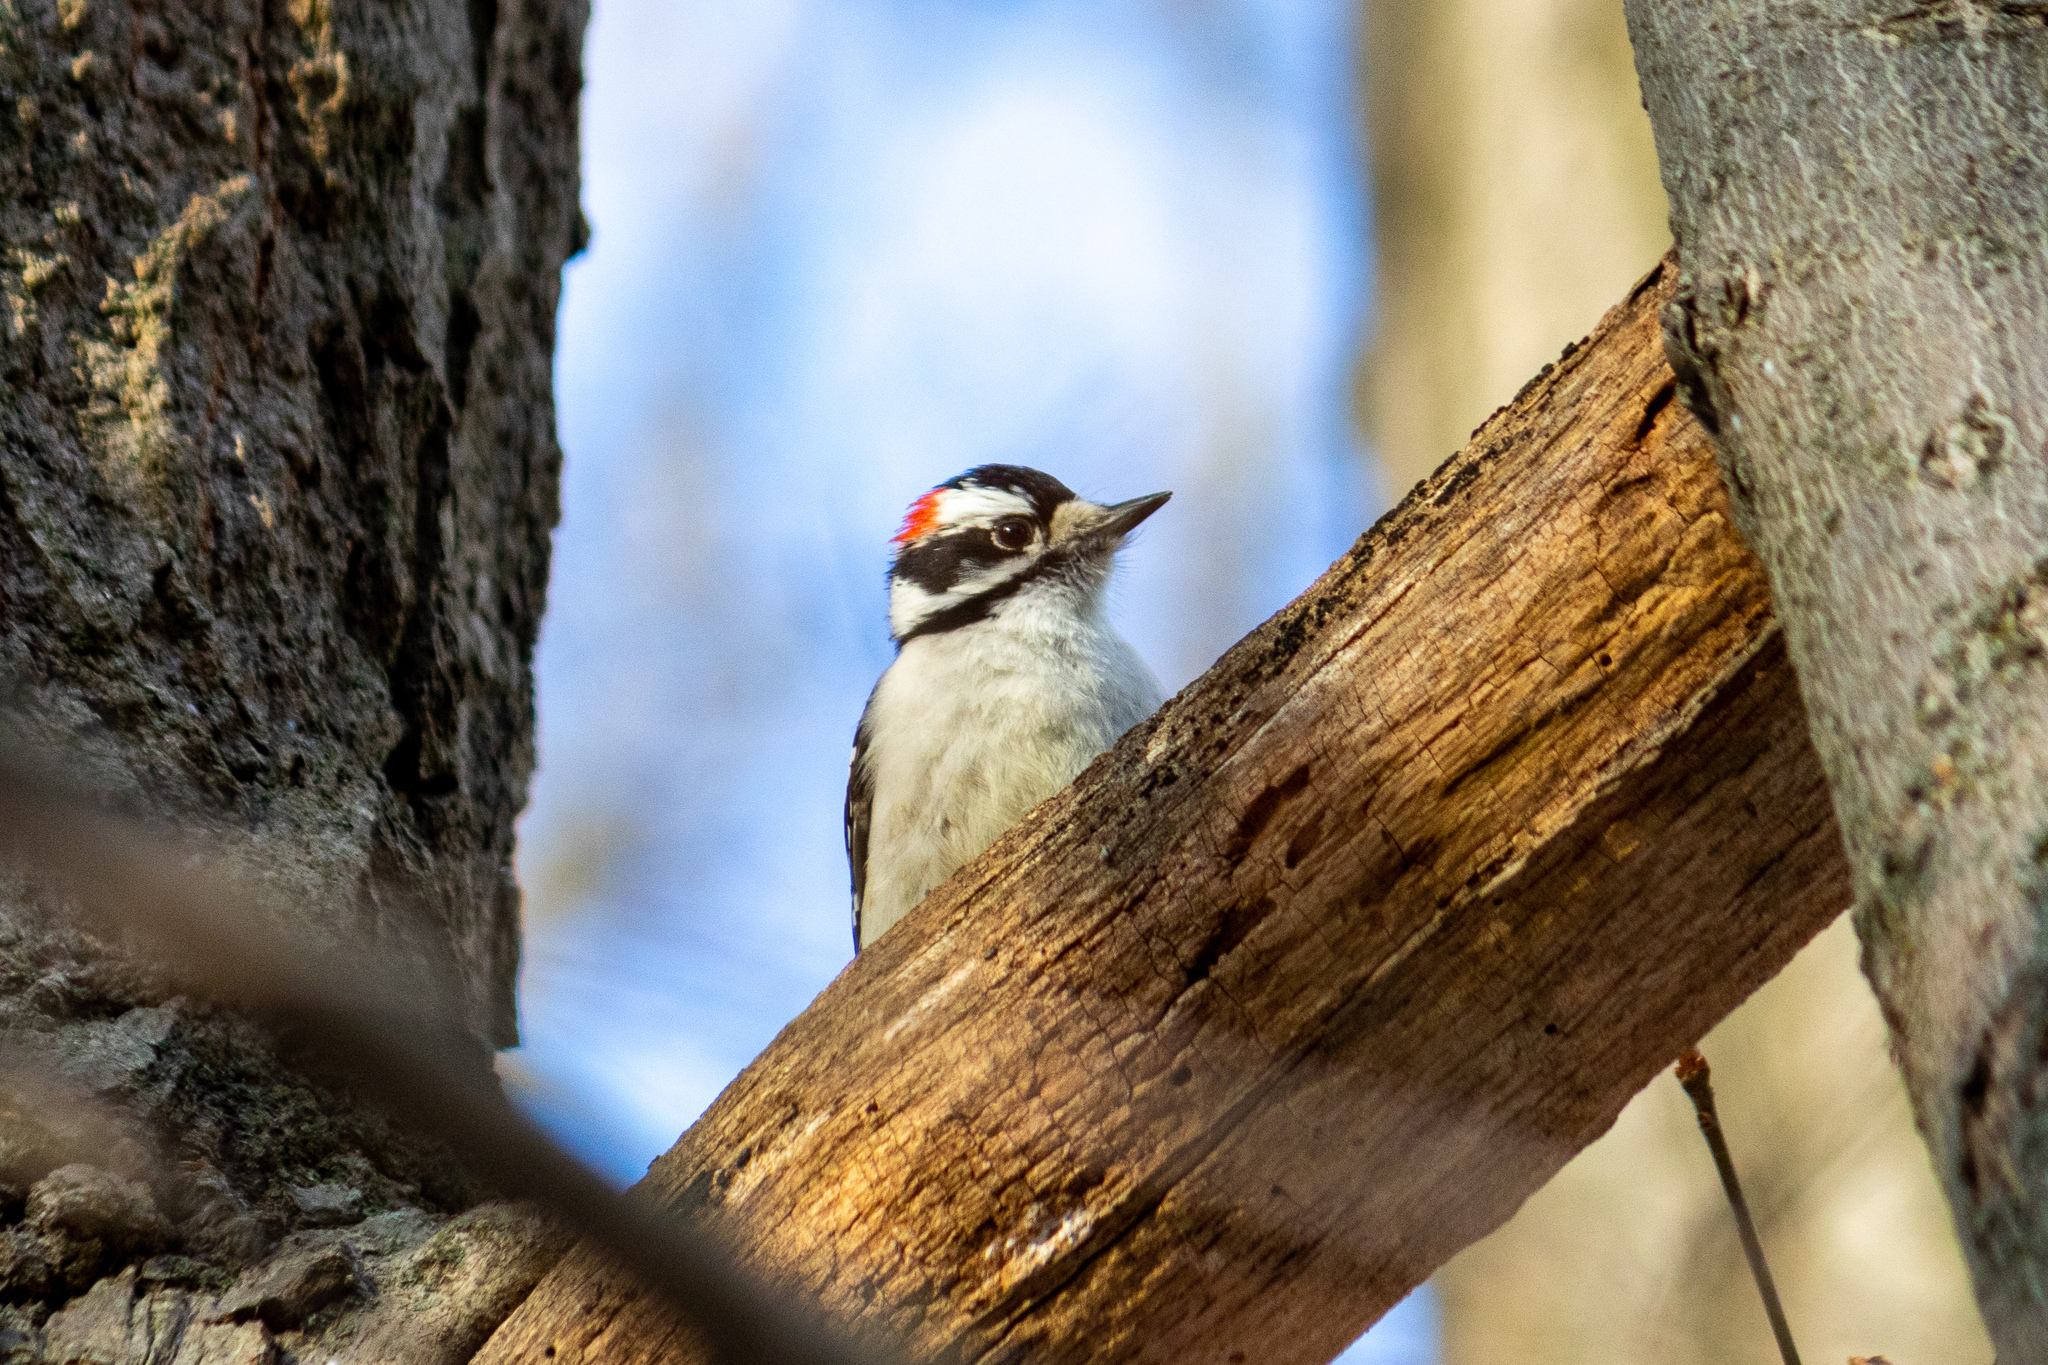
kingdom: Animalia
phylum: Chordata
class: Aves
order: Piciformes
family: Picidae
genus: Dryobates
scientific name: Dryobates pubescens
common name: Downy woodpecker
